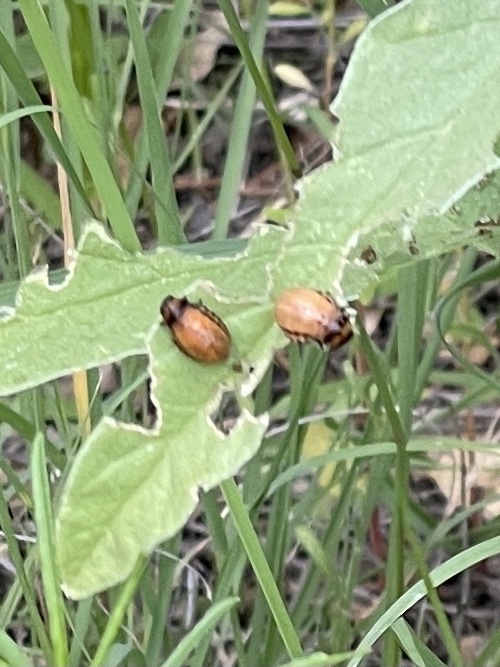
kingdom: Animalia
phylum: Arthropoda
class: Insecta
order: Coleoptera
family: Chrysomelidae
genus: Leptinotarsa
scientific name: Leptinotarsa decemlineata
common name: Colorado potato beetle
